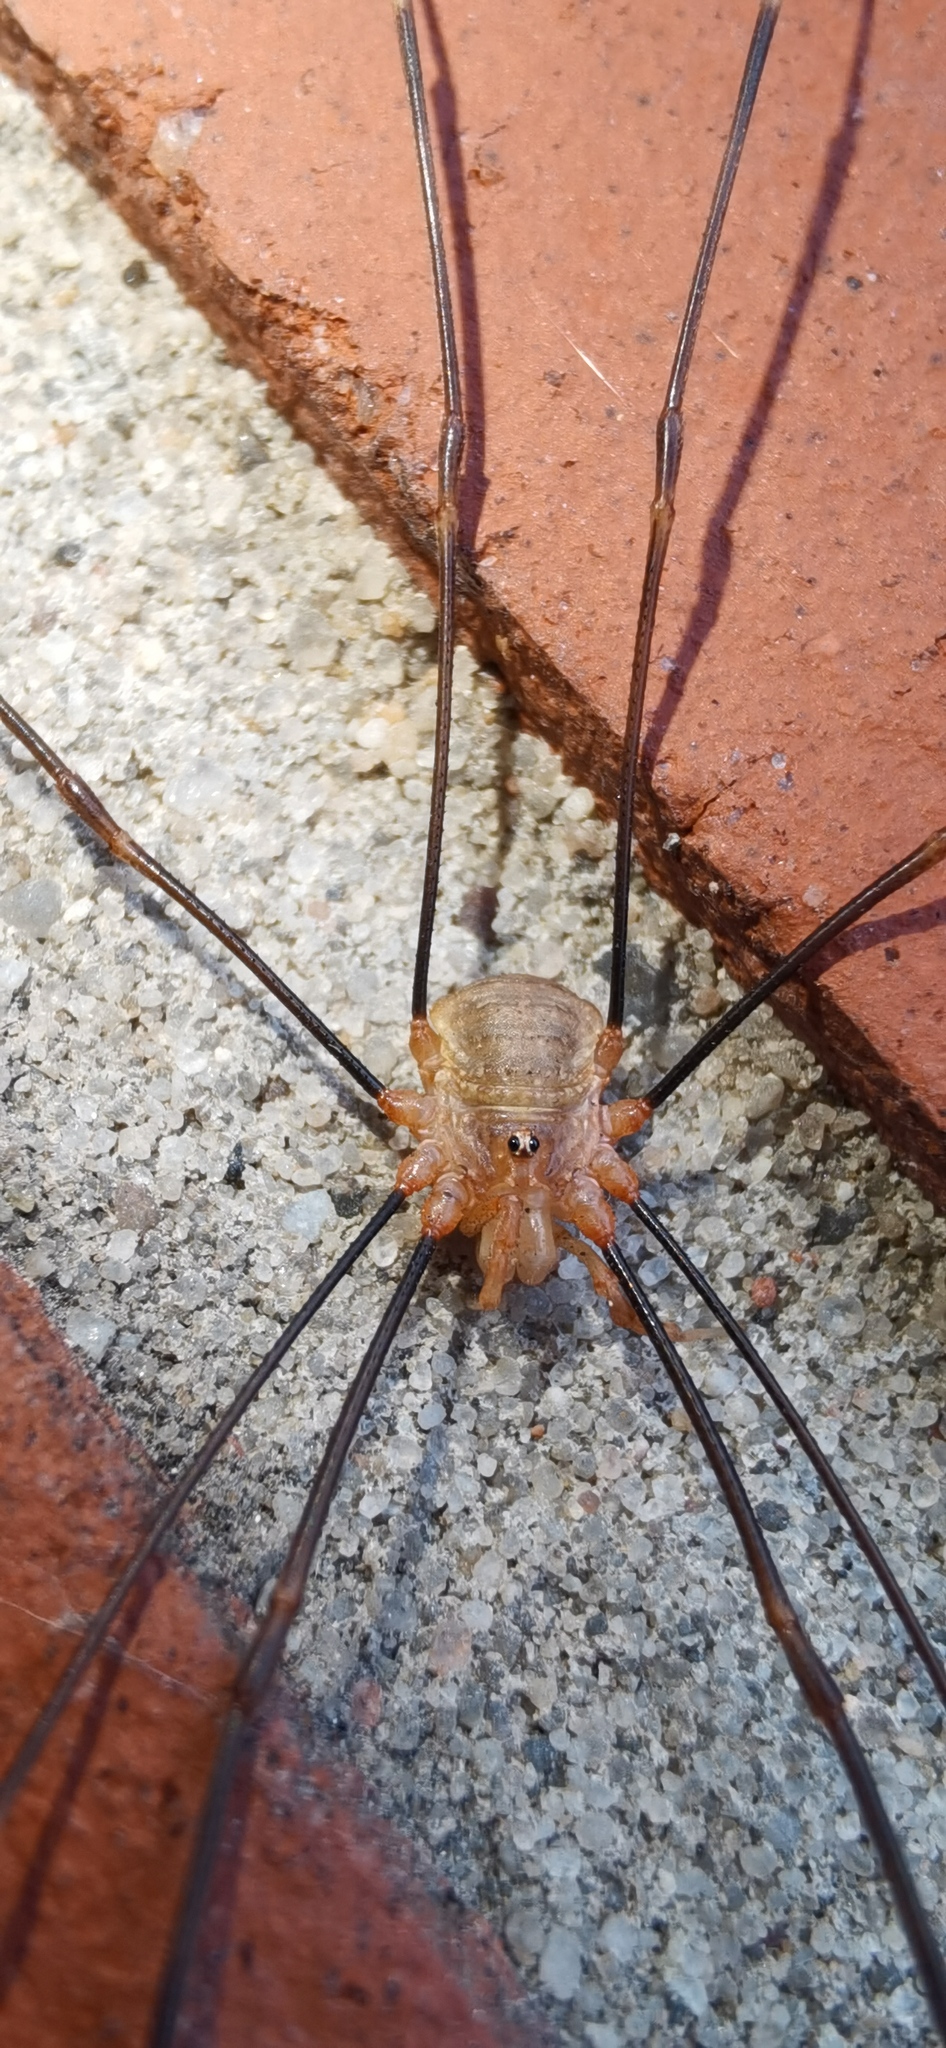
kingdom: Animalia
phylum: Arthropoda
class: Arachnida
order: Opiliones
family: Phalangiidae
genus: Opilio
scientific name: Opilio canestrinii
